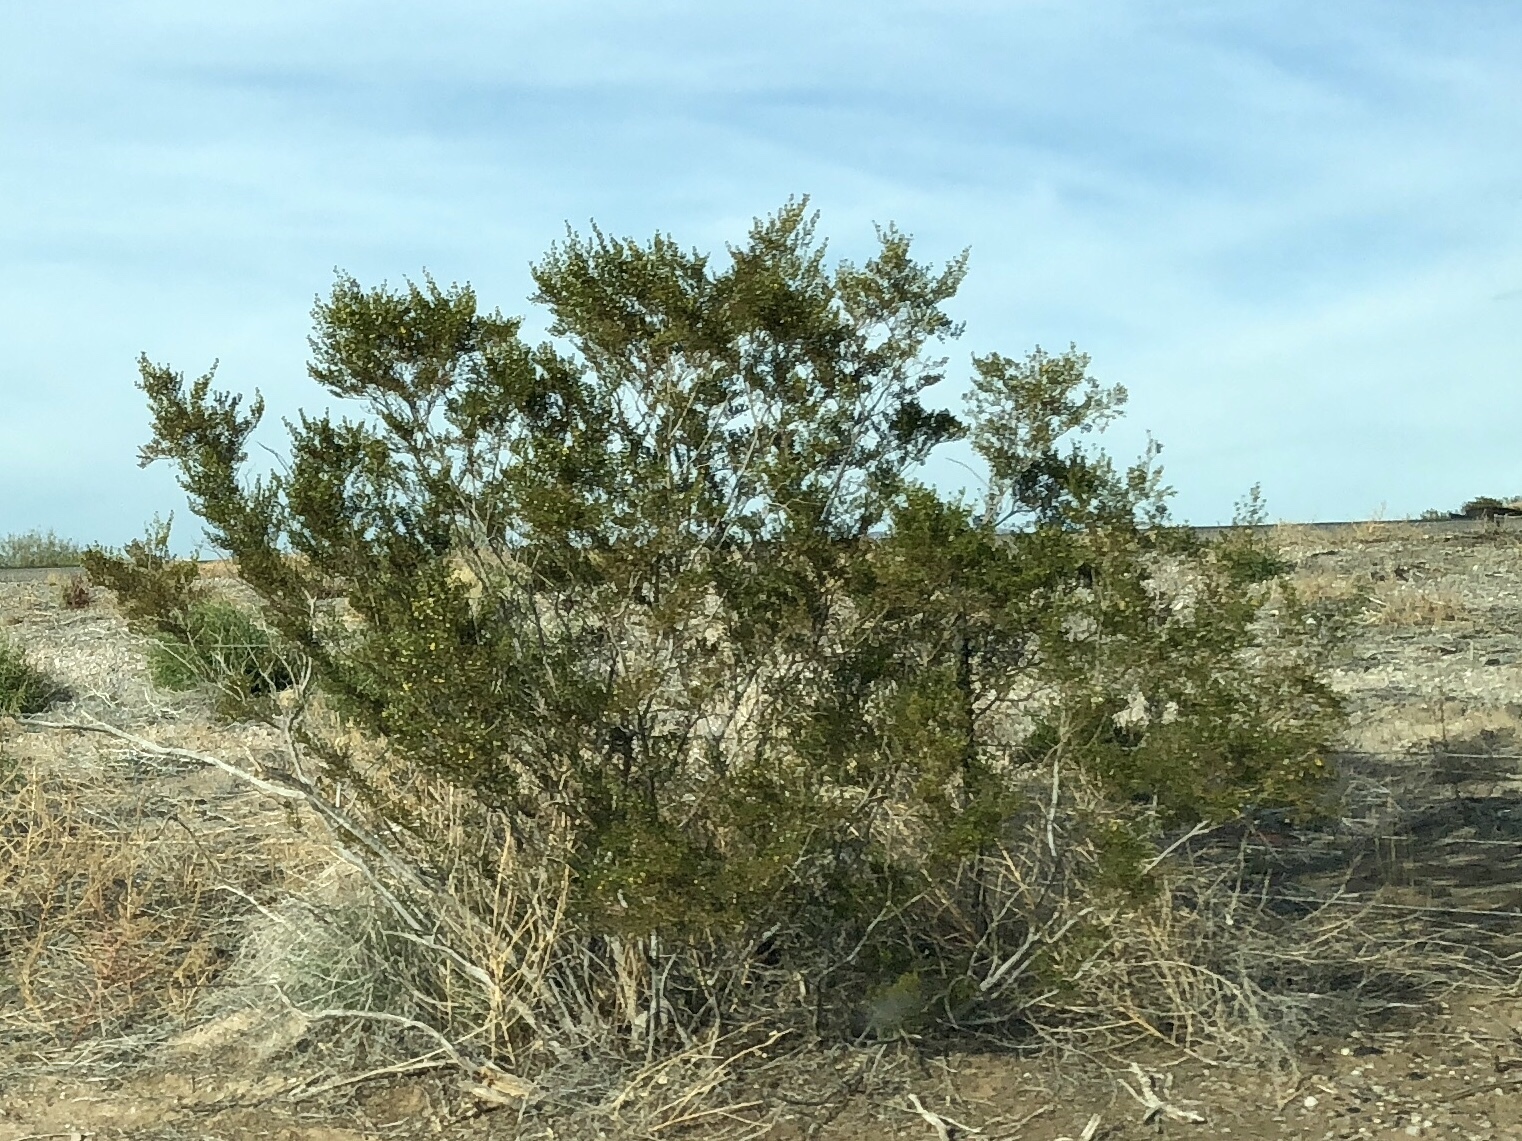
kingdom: Plantae
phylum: Tracheophyta
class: Magnoliopsida
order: Zygophyllales
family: Zygophyllaceae
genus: Larrea
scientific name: Larrea tridentata
